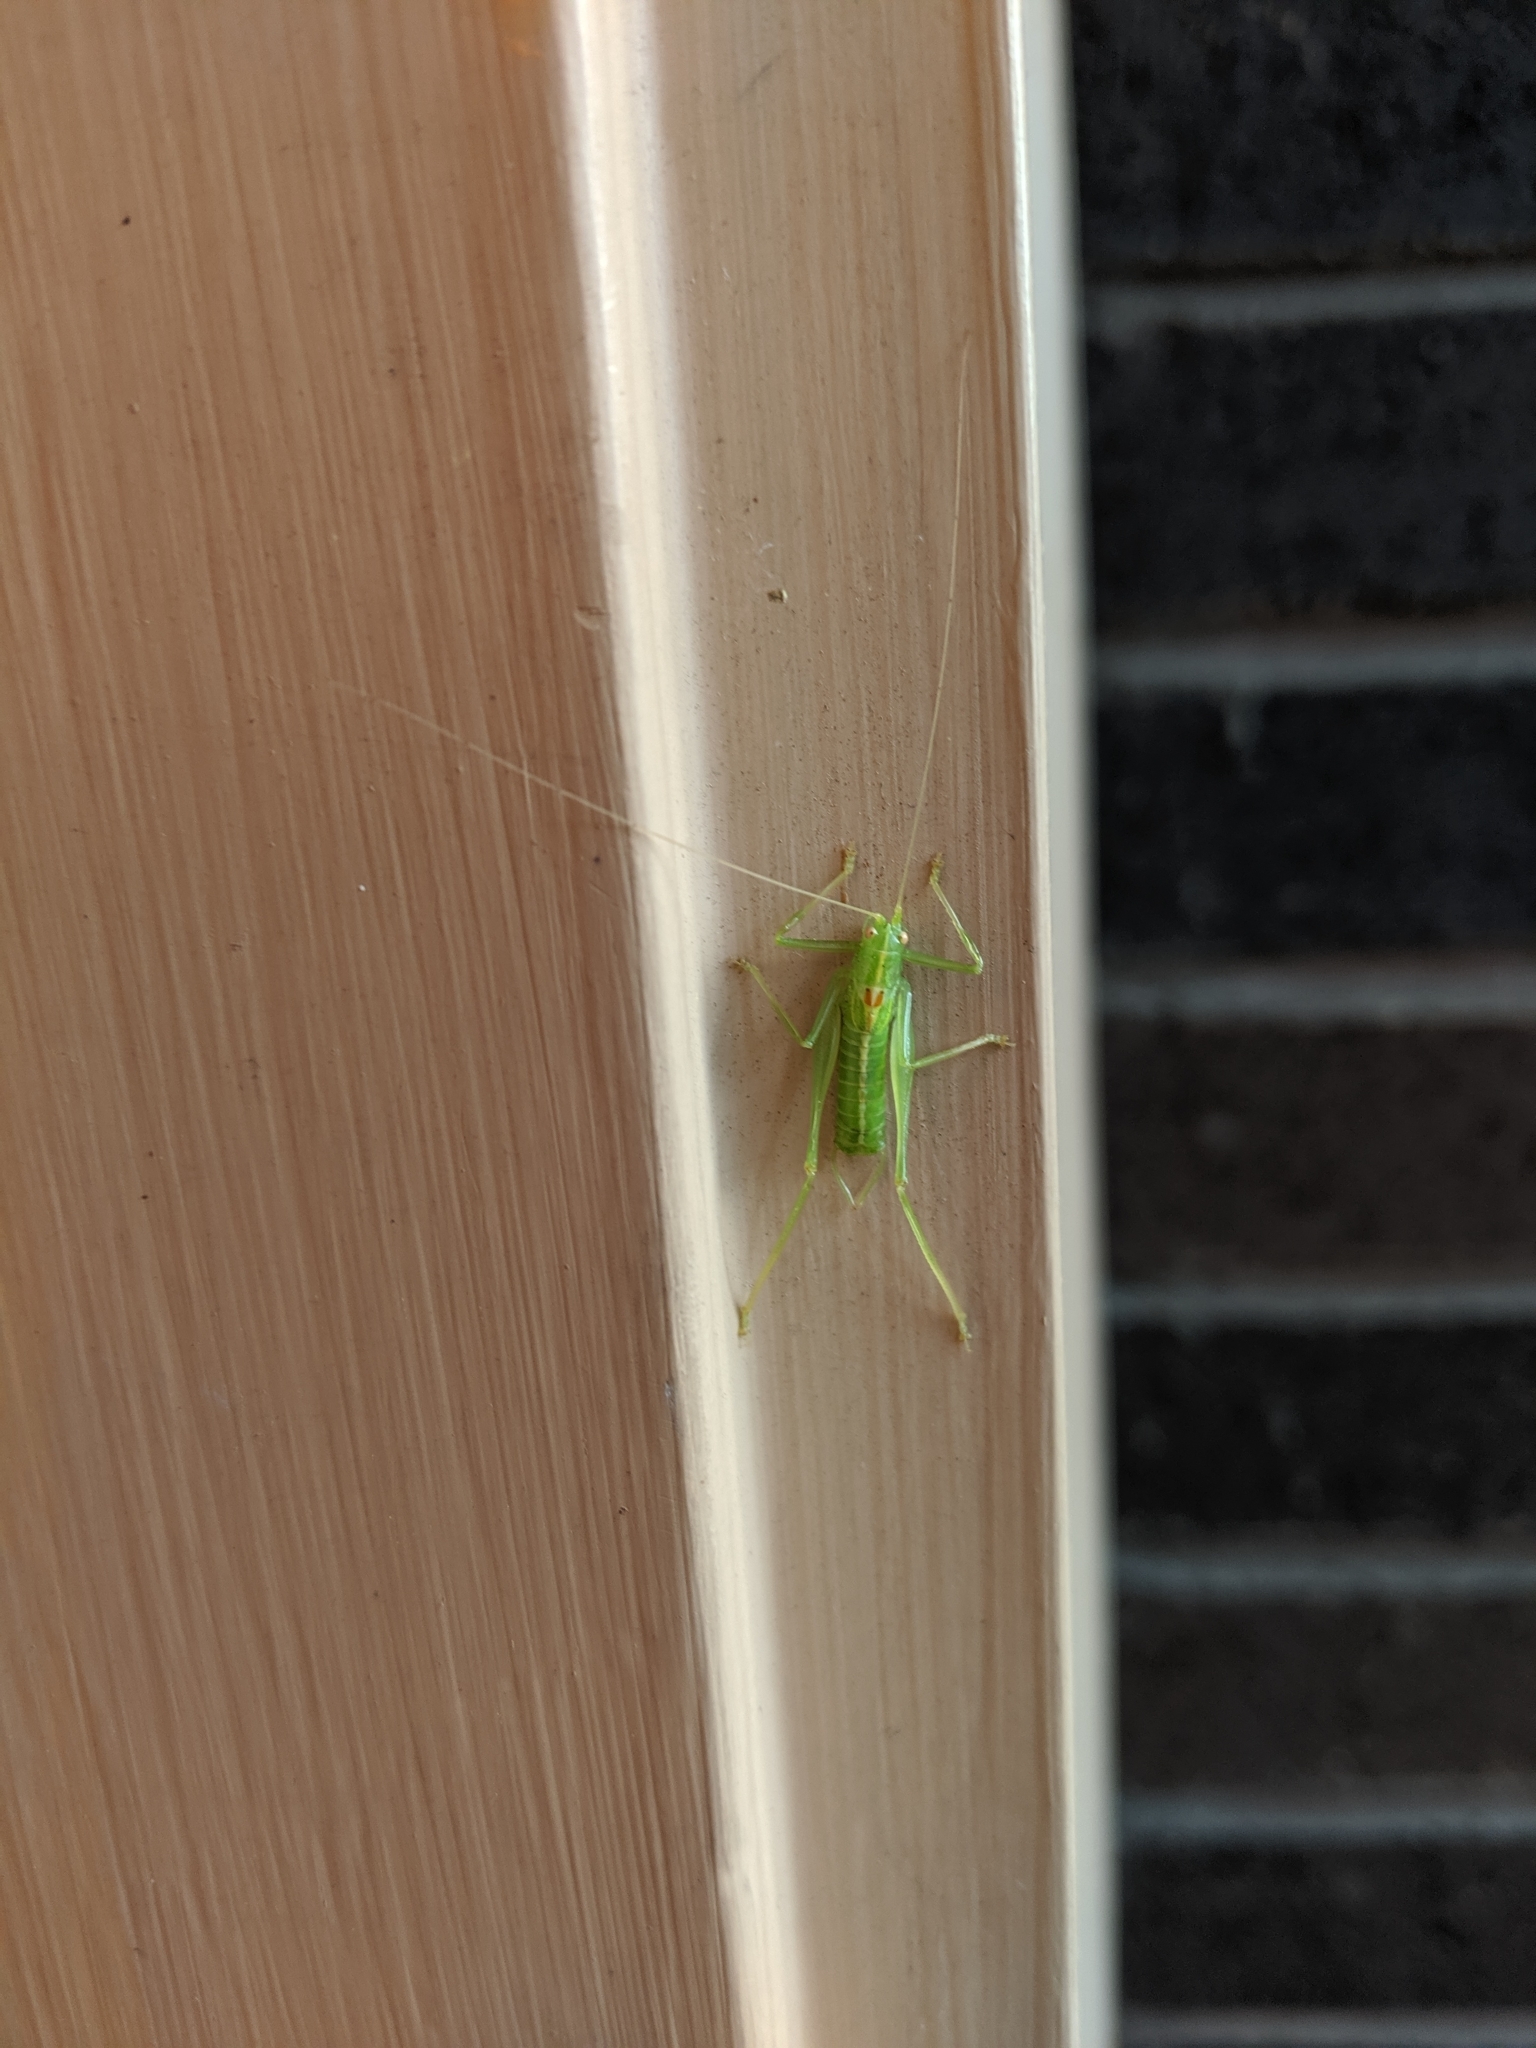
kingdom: Animalia
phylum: Arthropoda
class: Insecta
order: Orthoptera
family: Tettigoniidae
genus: Meconema
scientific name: Meconema meridionale
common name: Southern oak bush-cricket
